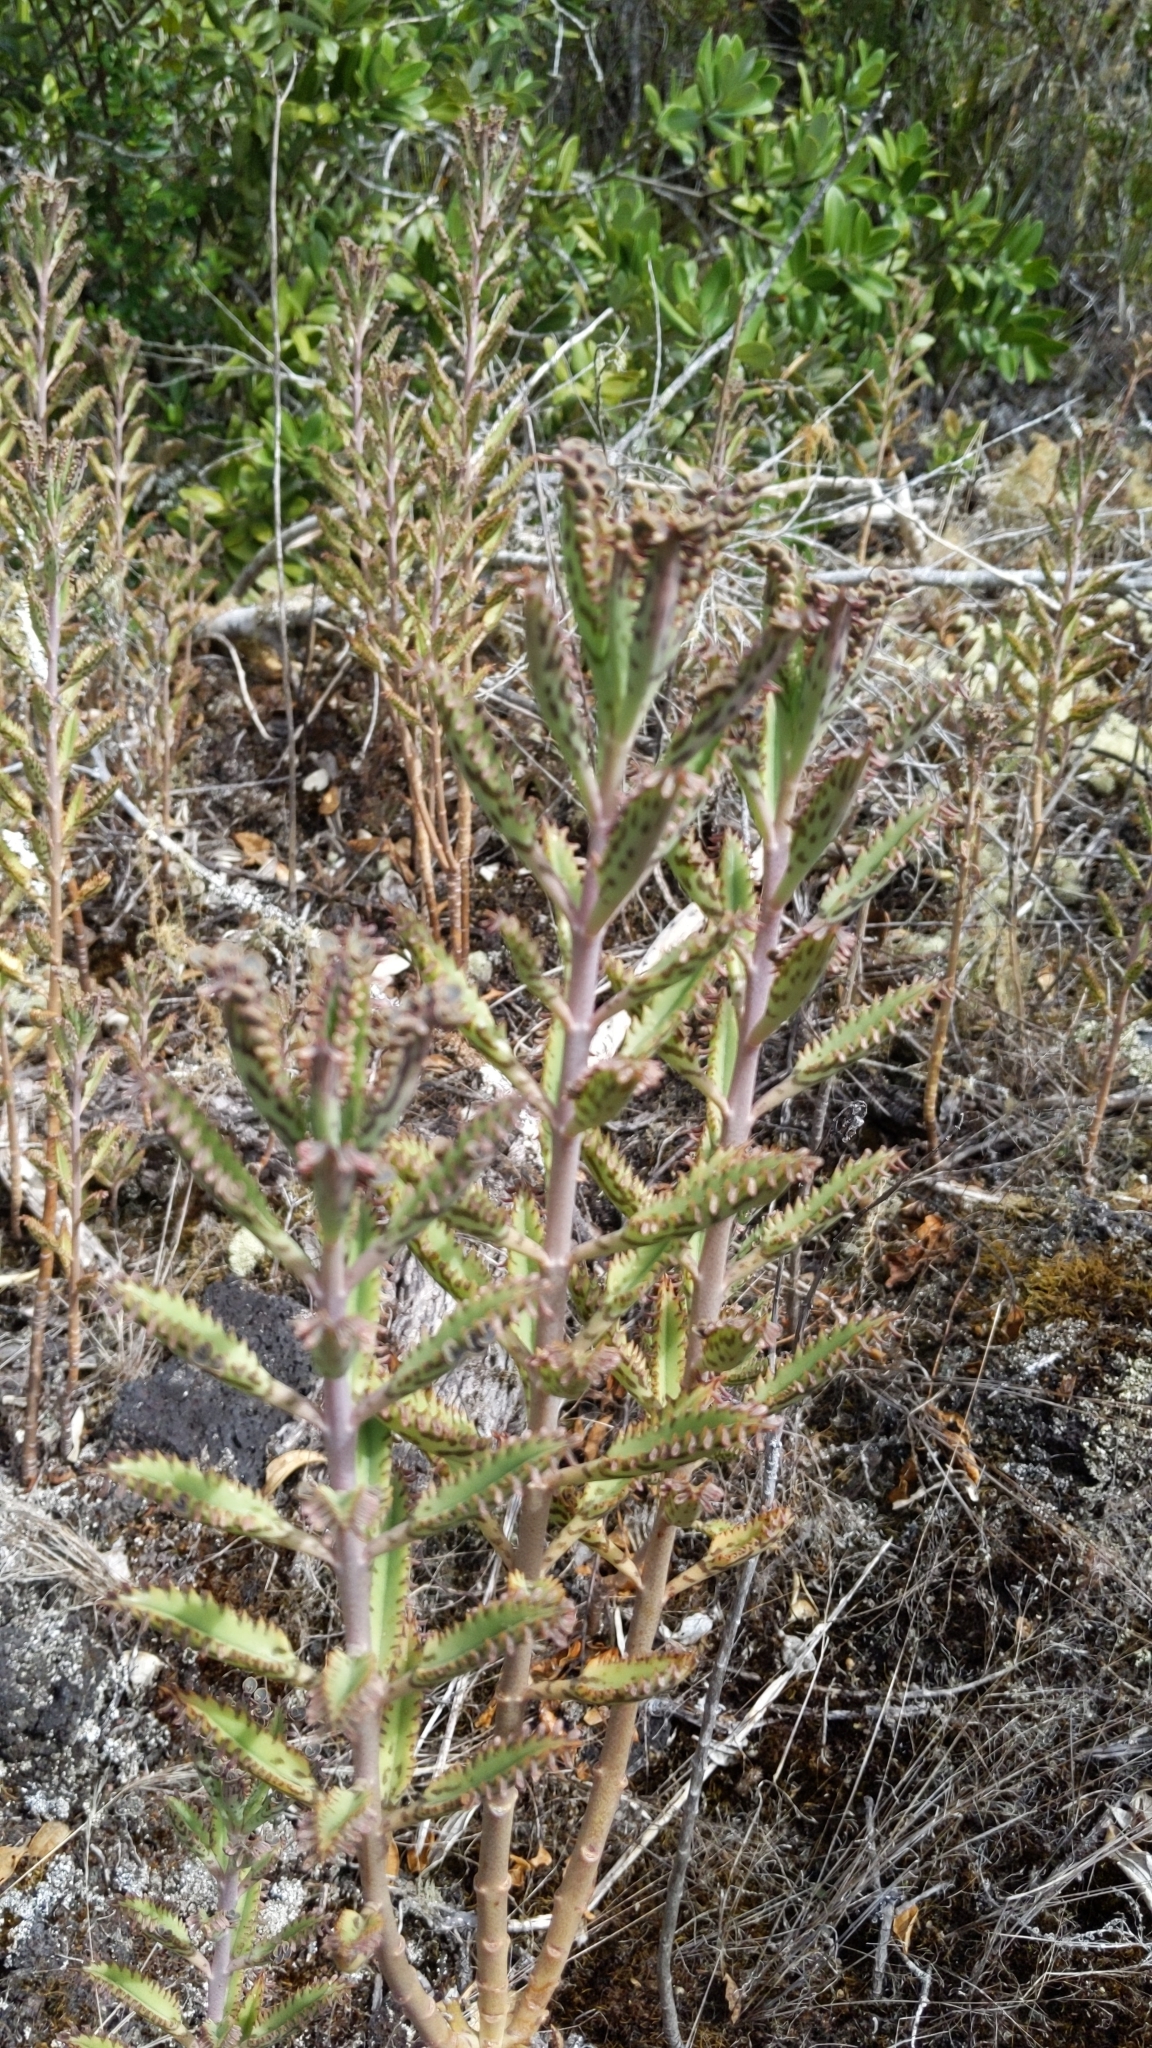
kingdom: Plantae
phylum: Tracheophyta
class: Magnoliopsida
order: Saxifragales
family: Crassulaceae
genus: Kalanchoe
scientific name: Kalanchoe houghtonii
